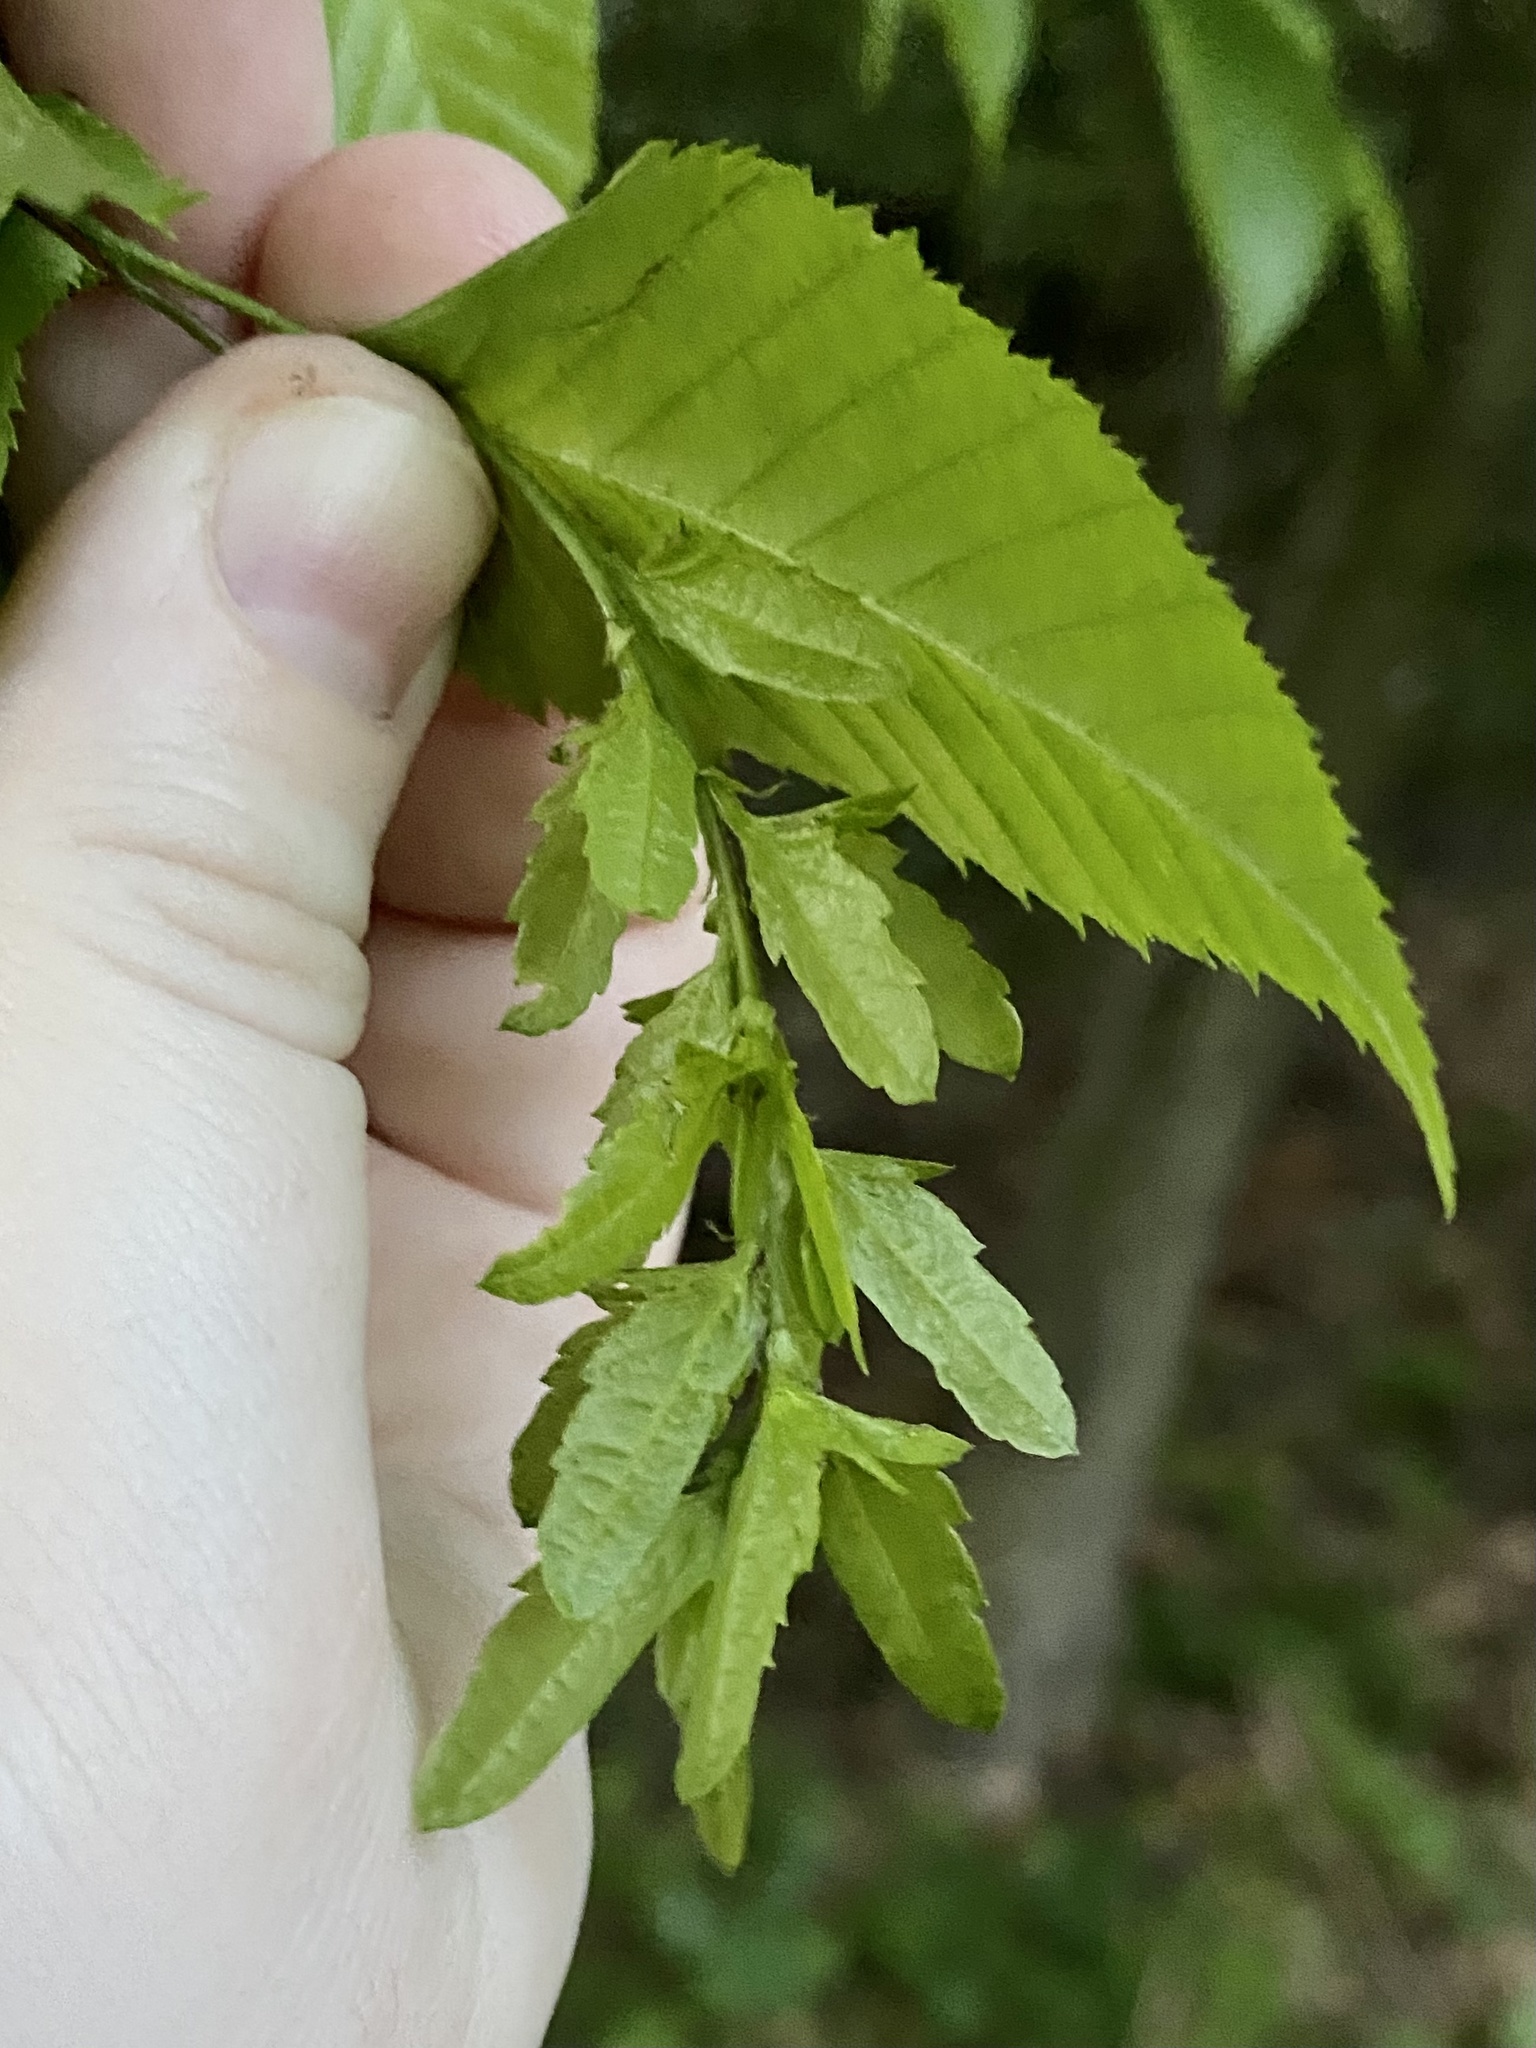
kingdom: Plantae
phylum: Tracheophyta
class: Magnoliopsida
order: Fagales
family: Betulaceae
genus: Carpinus
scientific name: Carpinus caroliniana
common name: American hornbeam
